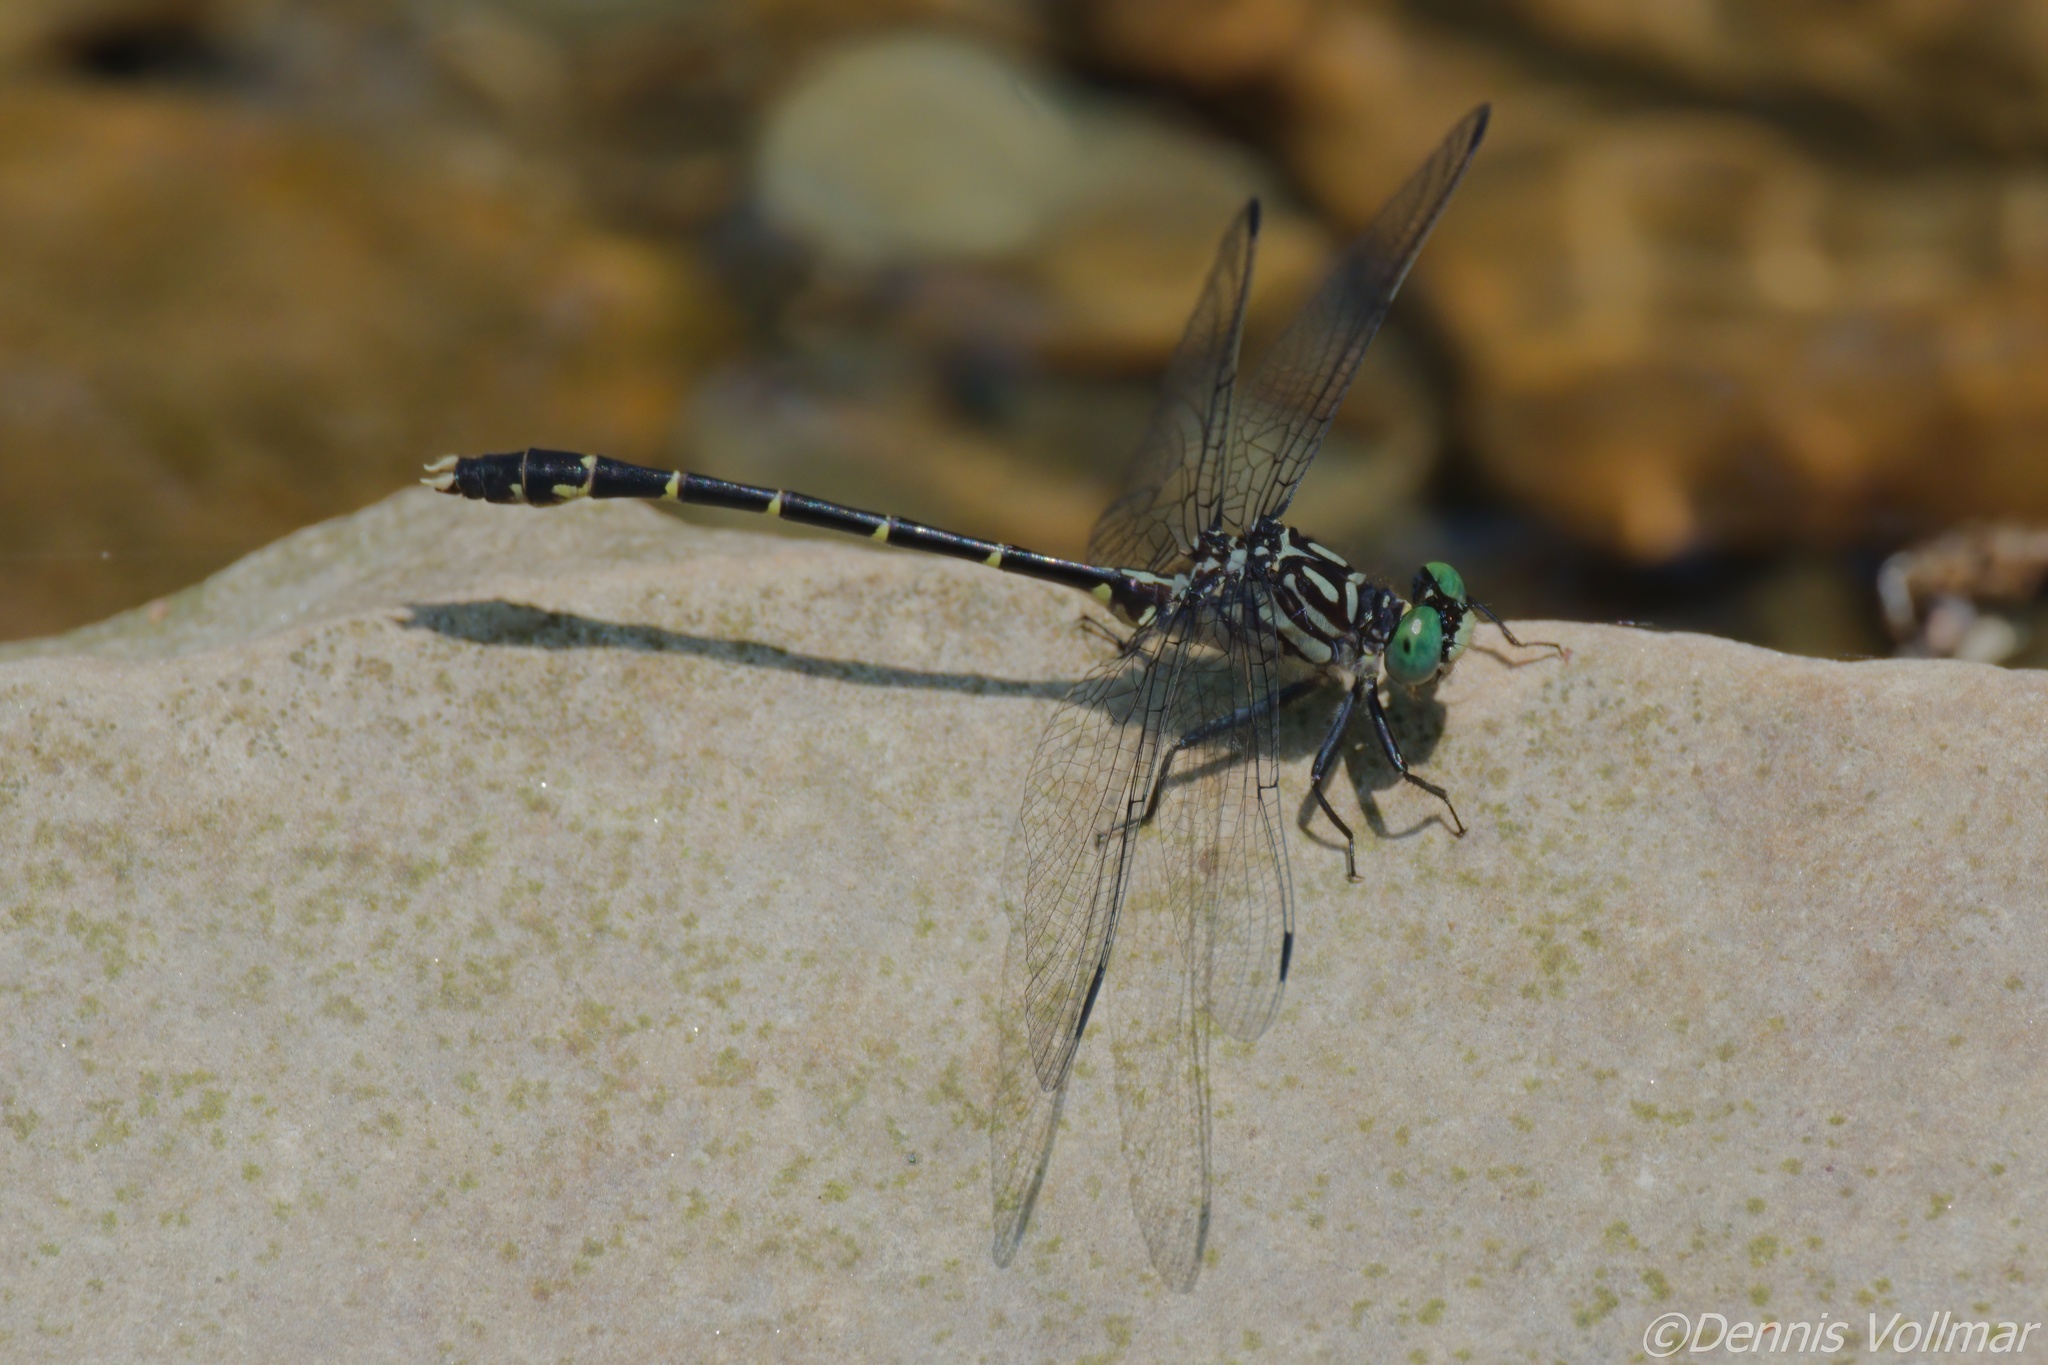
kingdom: Animalia
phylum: Arthropoda
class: Insecta
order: Odonata
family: Gomphidae
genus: Stylogomphus
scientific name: Stylogomphus albistylus
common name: Eastern least clubtail
